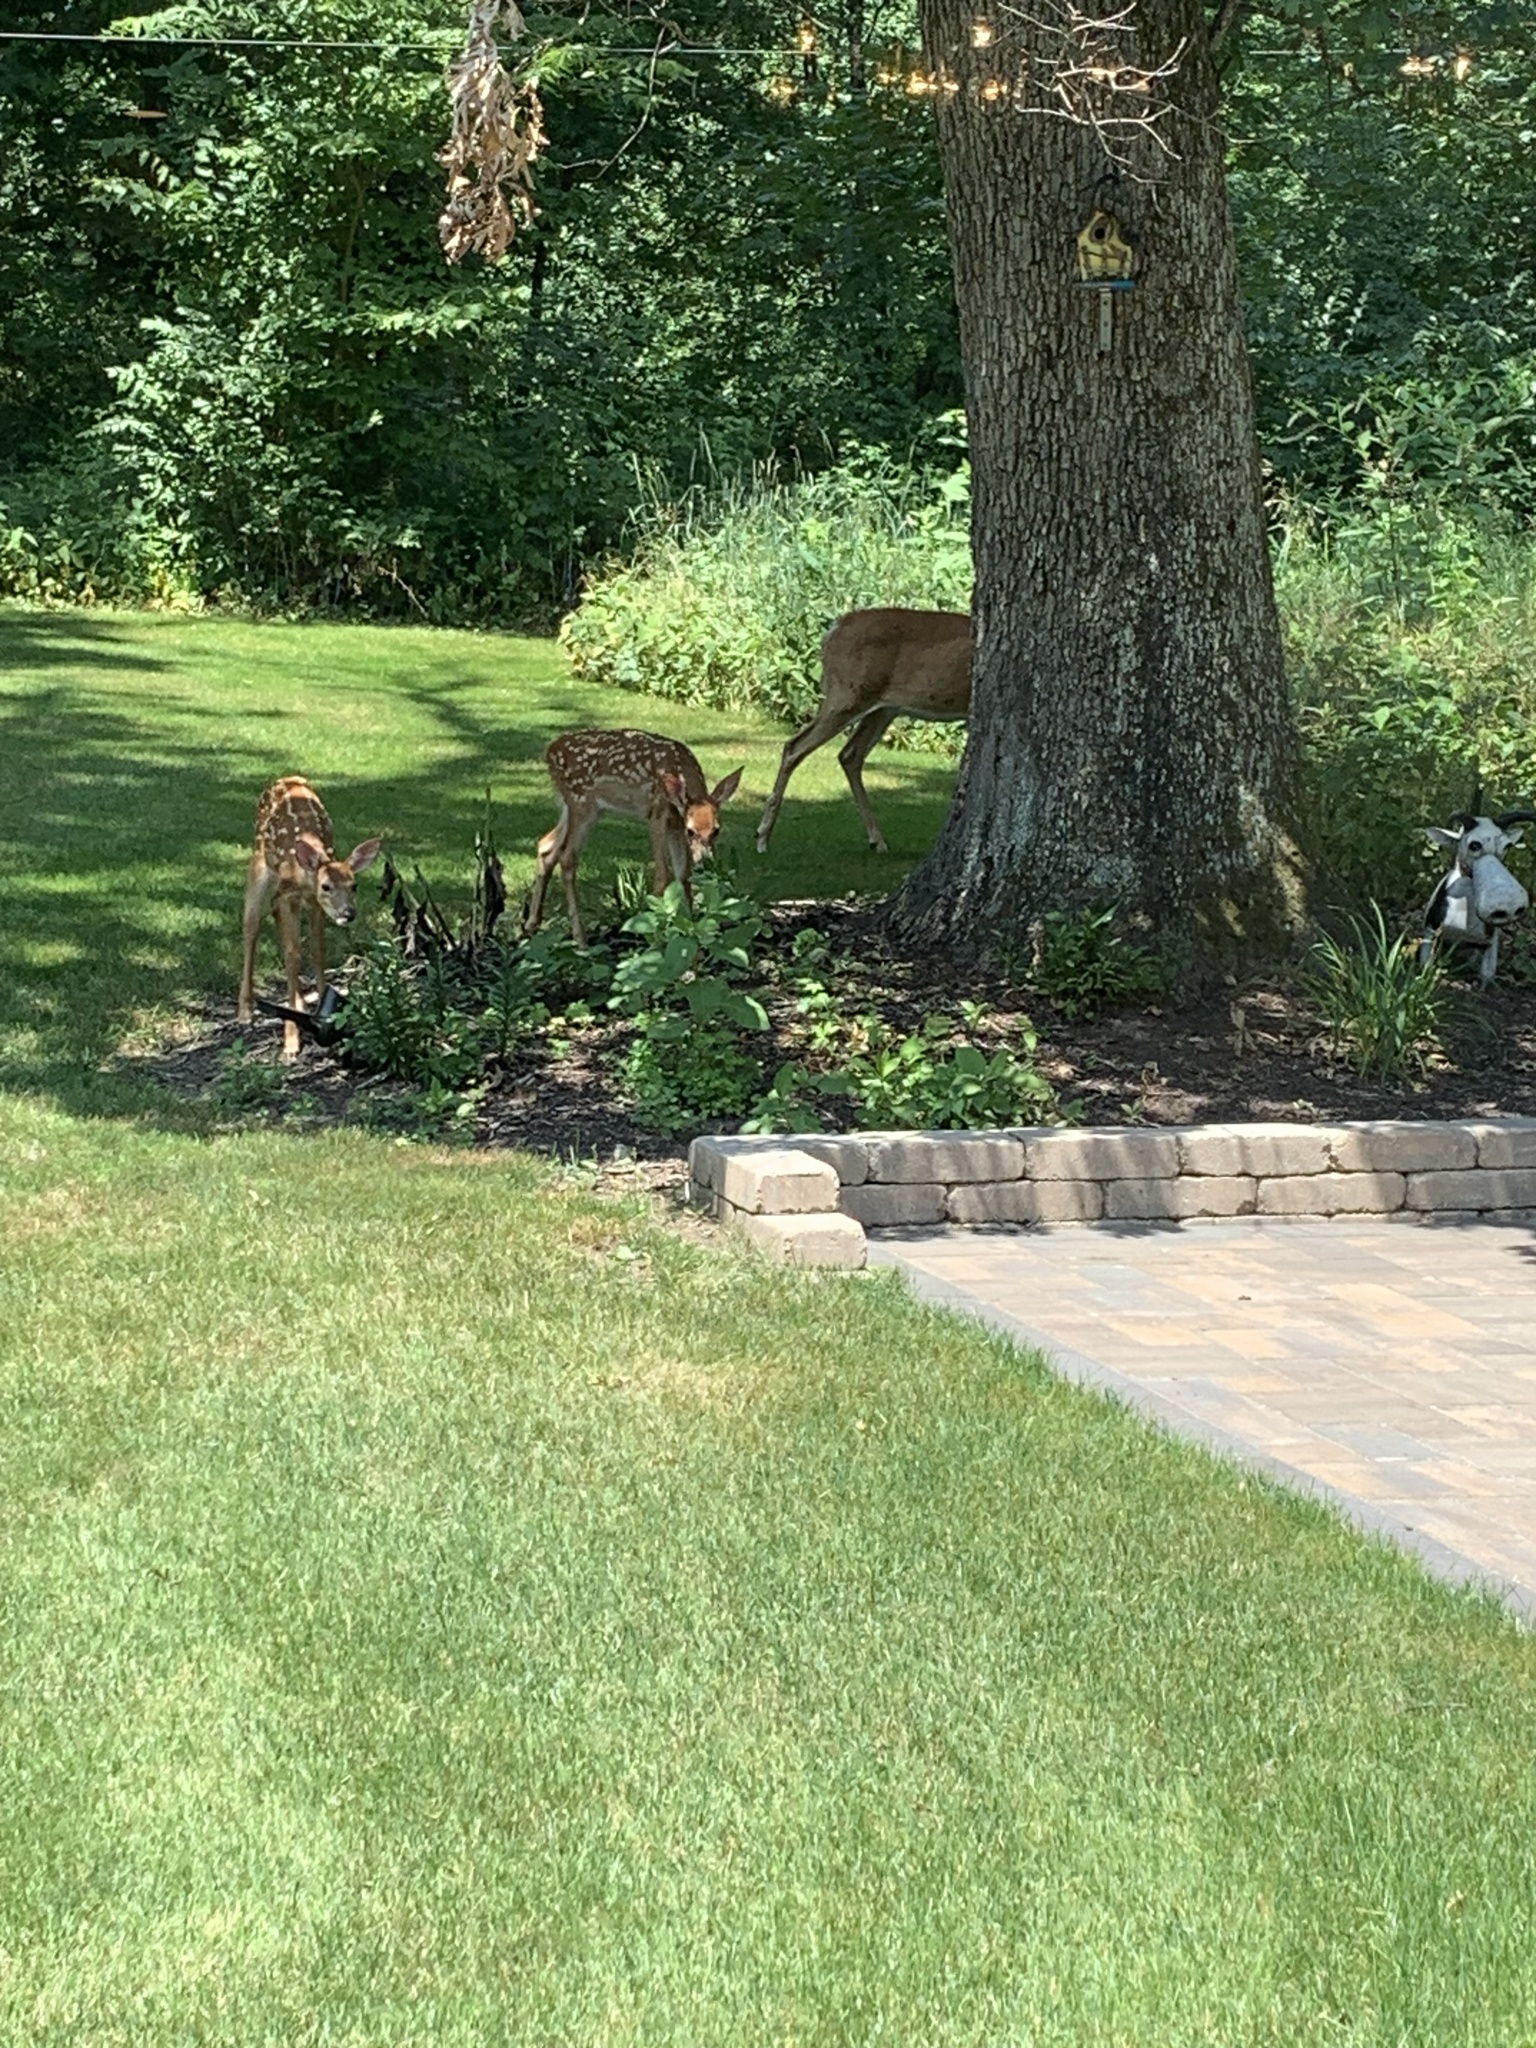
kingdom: Animalia
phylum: Chordata
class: Mammalia
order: Artiodactyla
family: Cervidae
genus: Odocoileus
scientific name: Odocoileus virginianus
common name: White-tailed deer
